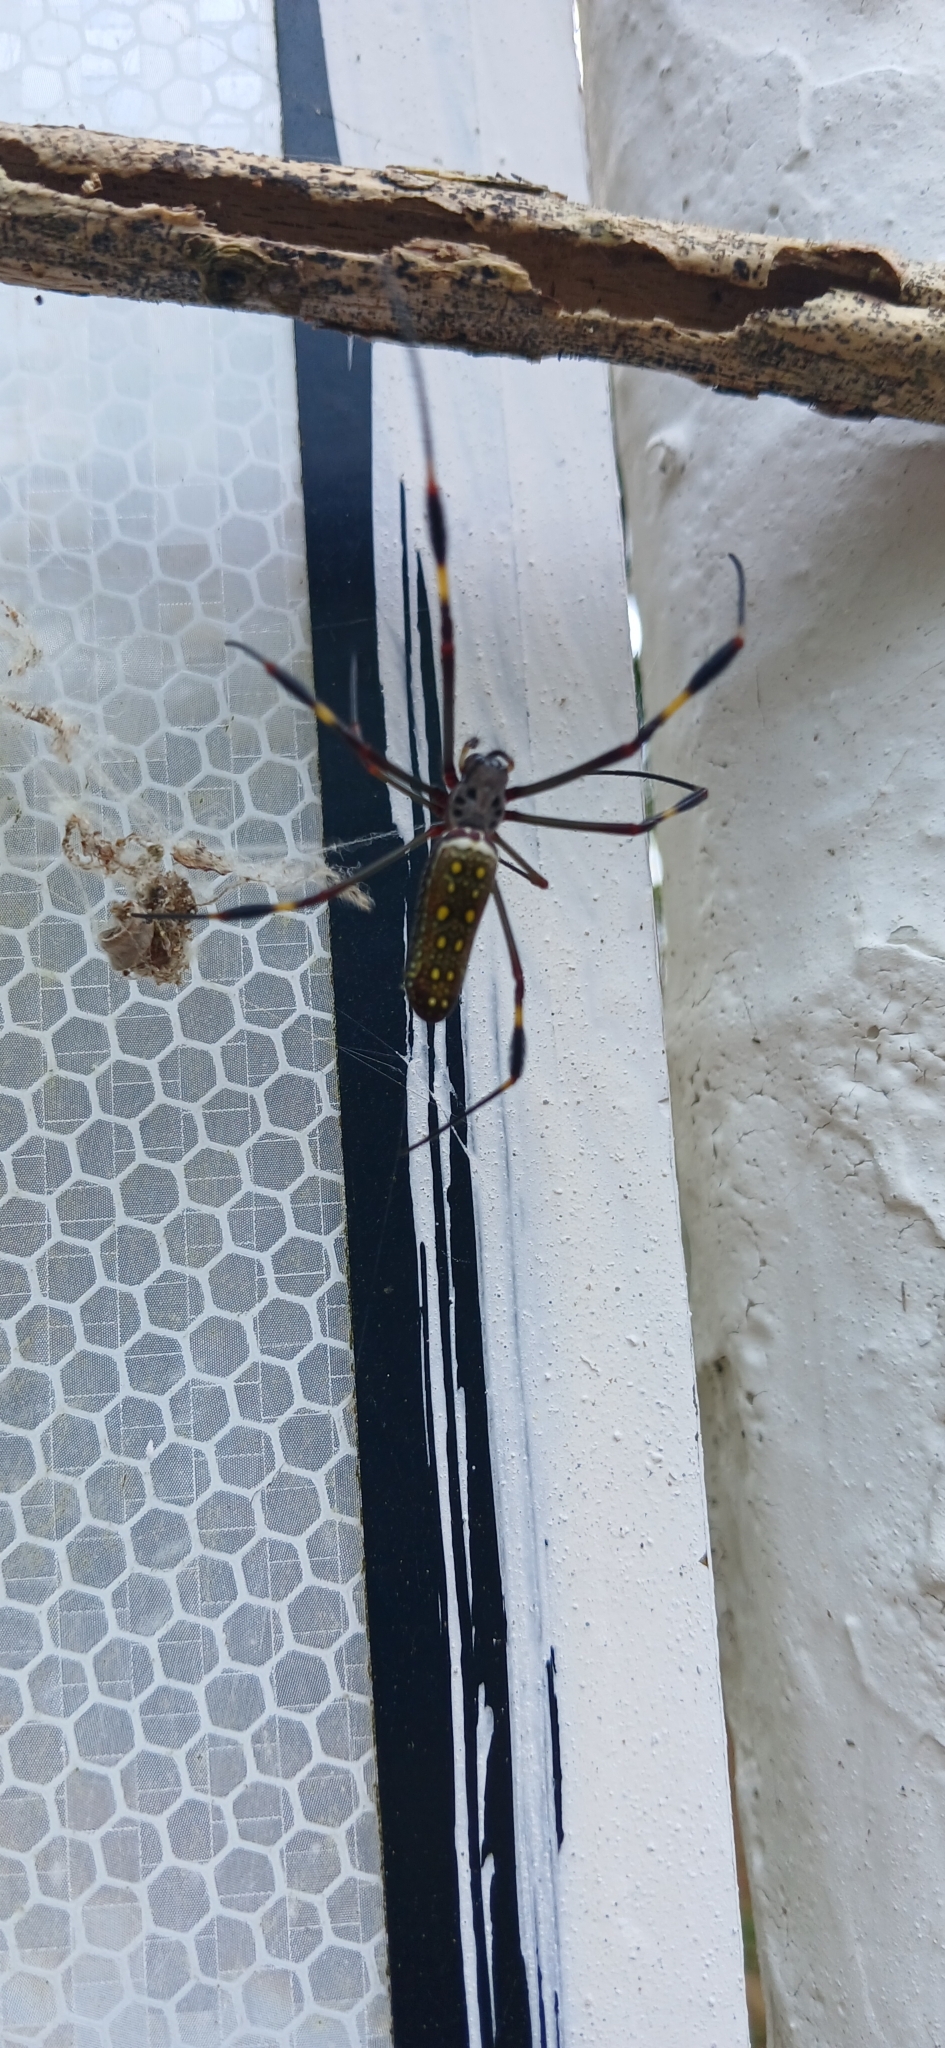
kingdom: Animalia
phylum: Arthropoda
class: Arachnida
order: Araneae
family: Araneidae
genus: Trichonephila
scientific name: Trichonephila clavipes
